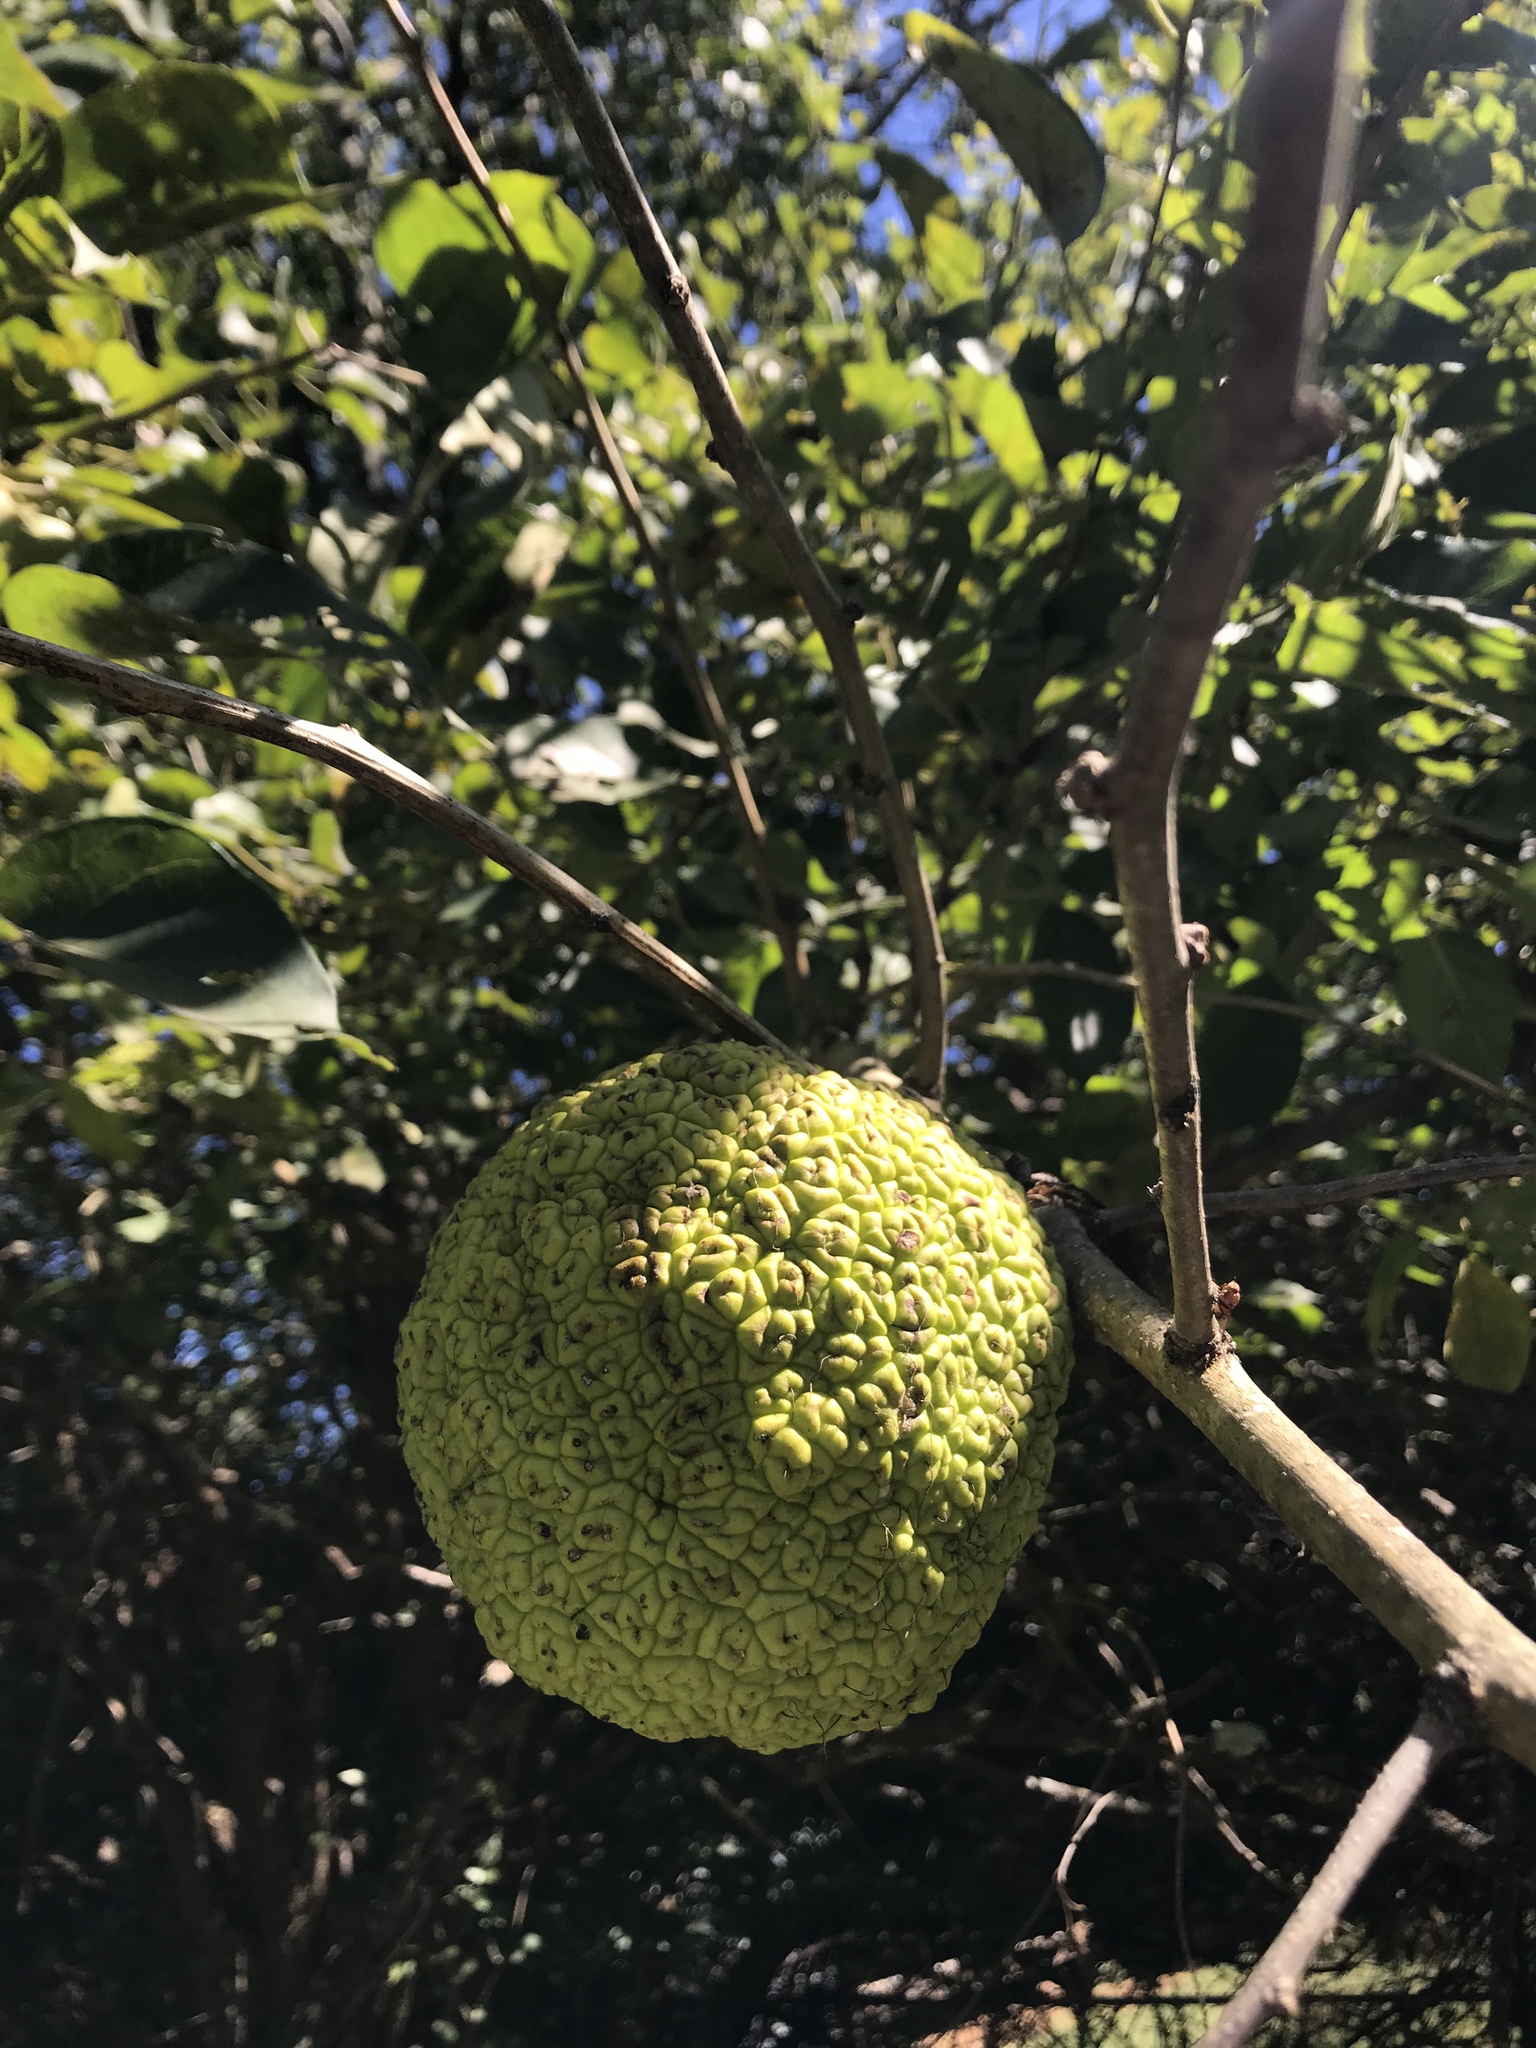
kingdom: Plantae
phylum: Tracheophyta
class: Magnoliopsida
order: Rosales
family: Moraceae
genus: Maclura
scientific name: Maclura pomifera
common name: Osage-orange
